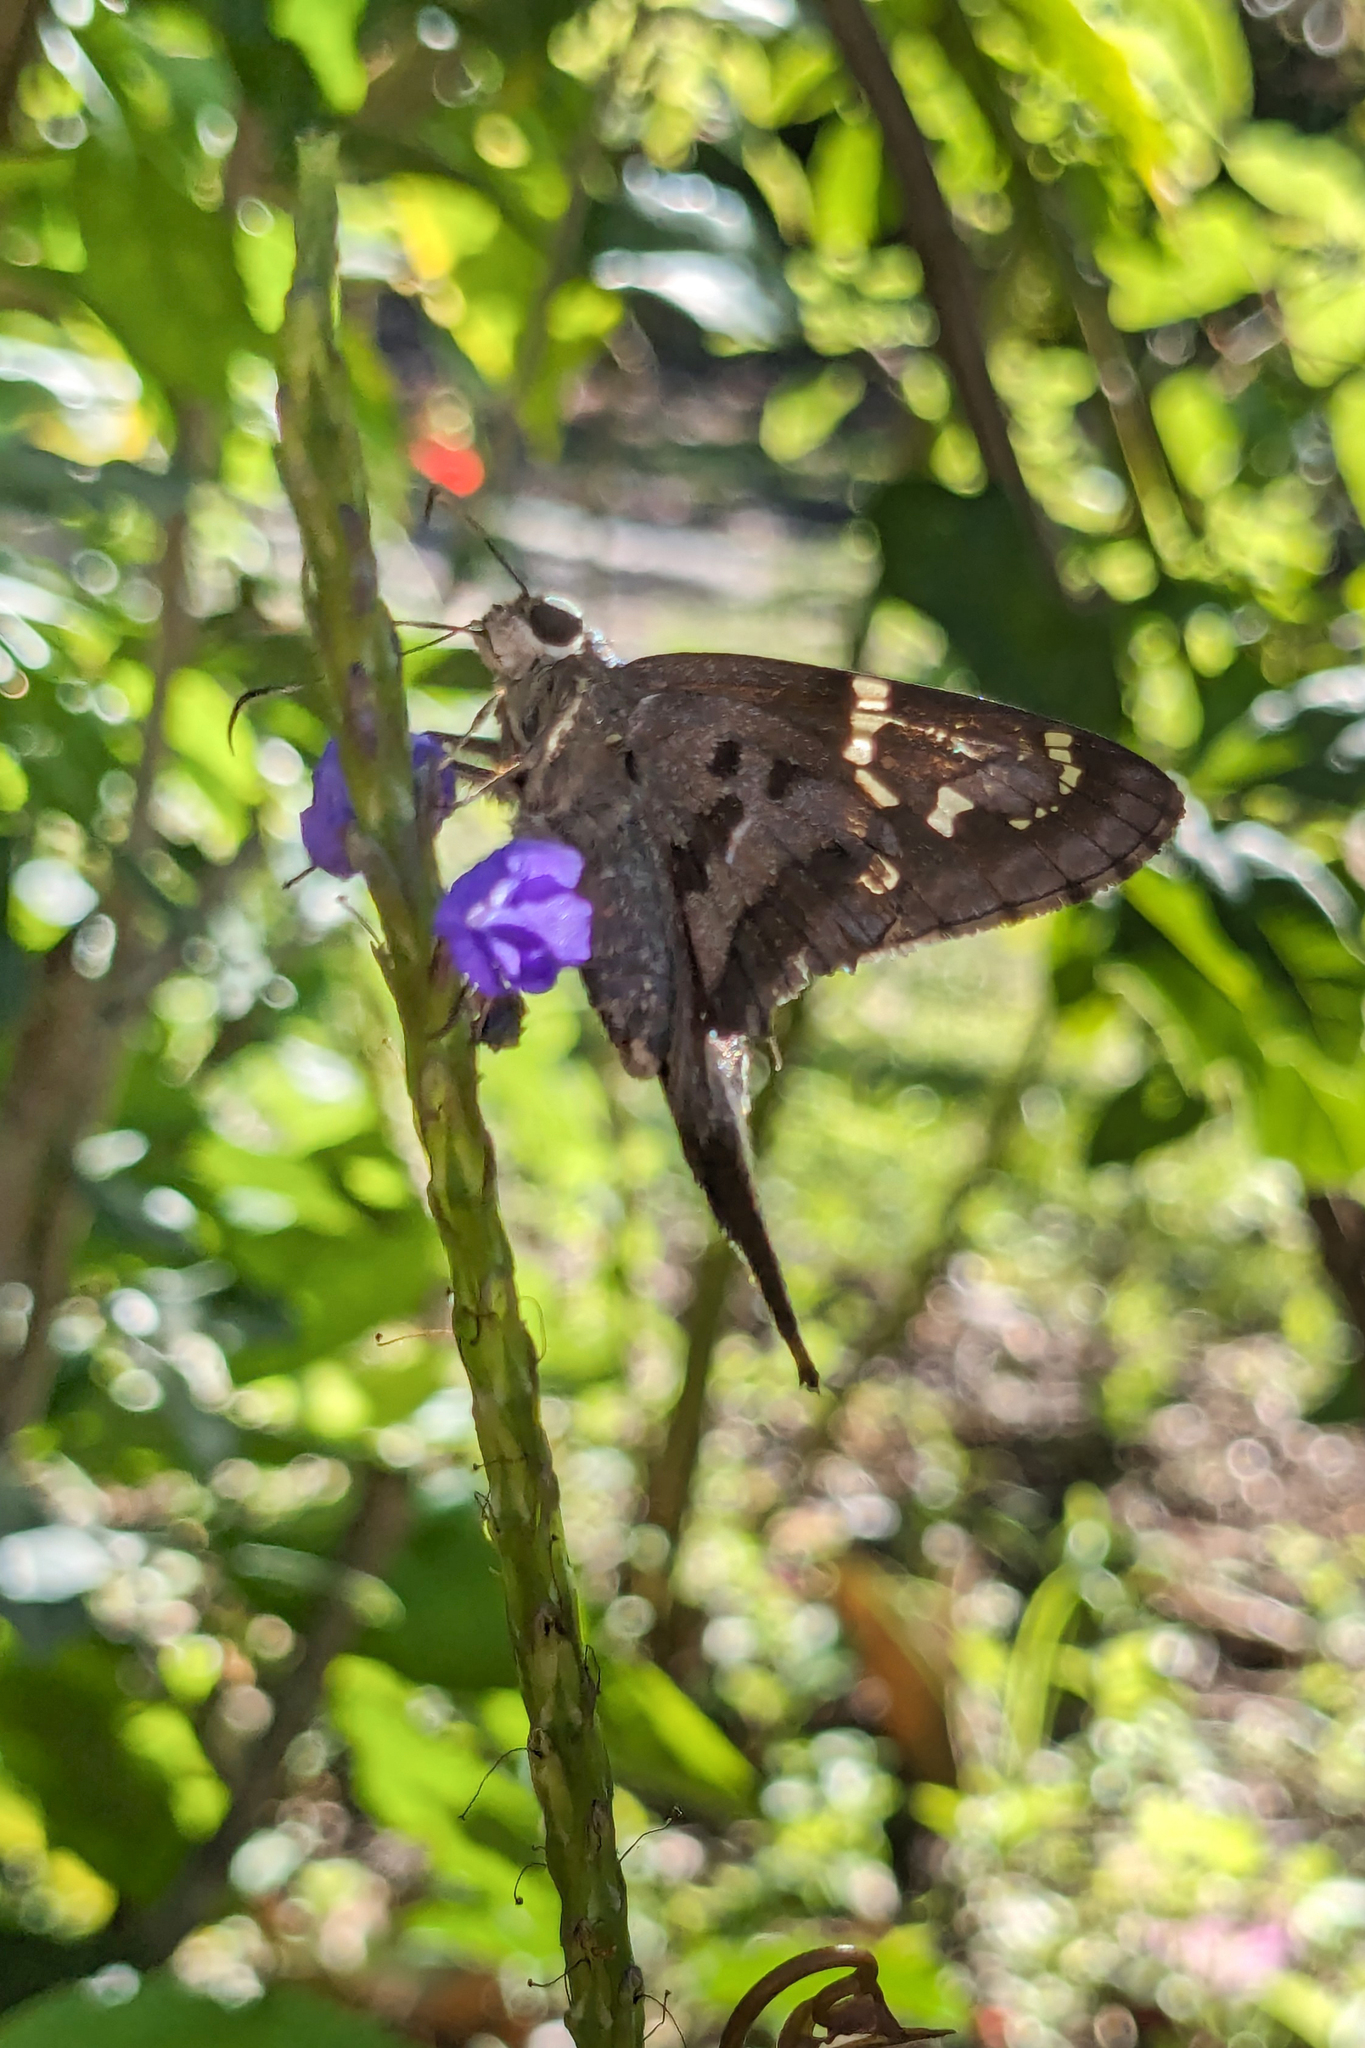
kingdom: Animalia
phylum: Arthropoda
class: Insecta
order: Lepidoptera
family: Hesperiidae
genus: Urbanus
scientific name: Urbanus proteus
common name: Long-tailed skipper
